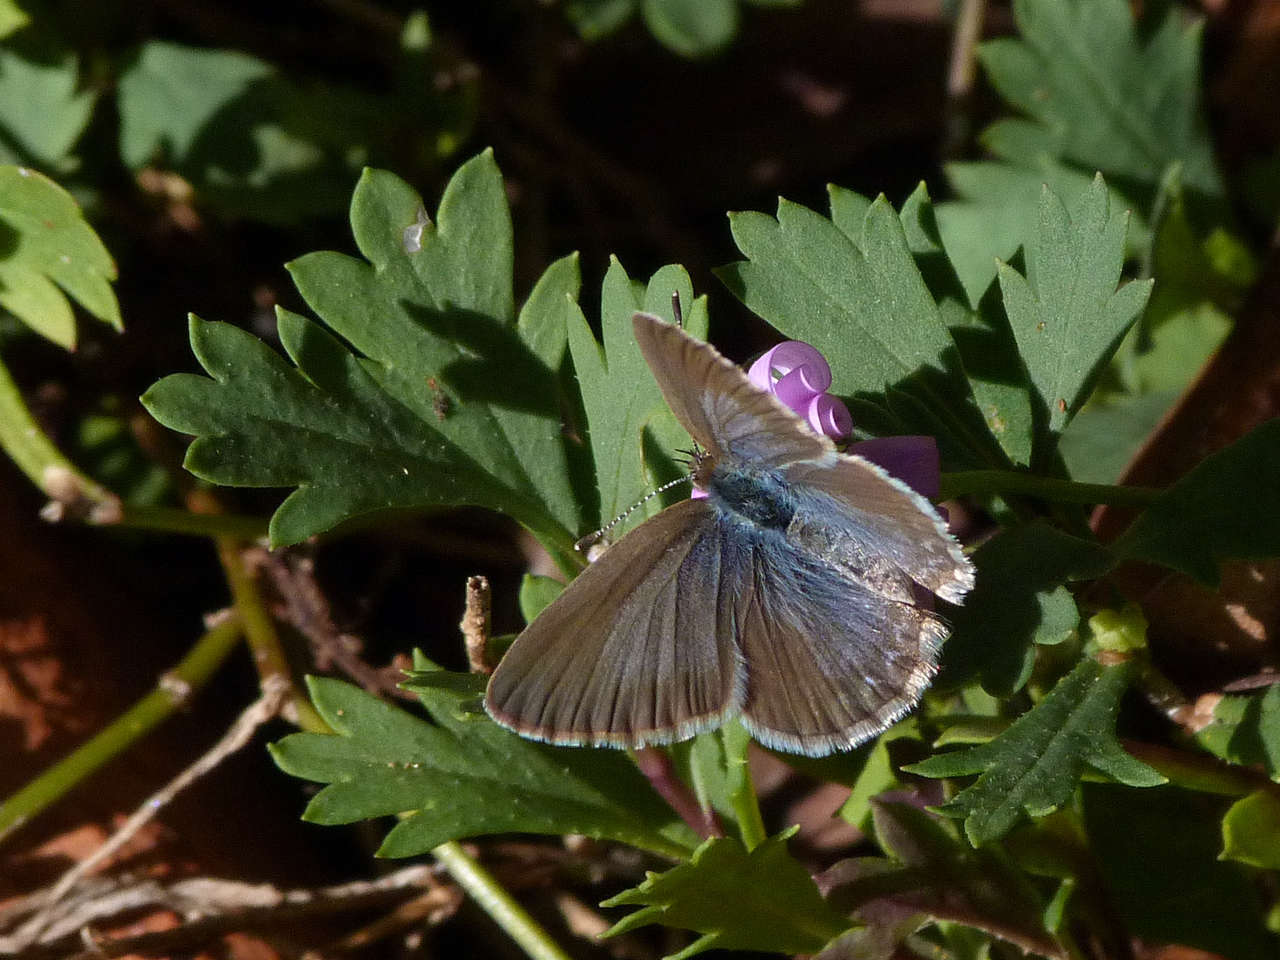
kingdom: Animalia
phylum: Arthropoda
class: Insecta
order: Lepidoptera
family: Lycaenidae
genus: Zizina
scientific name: Zizina labradus
